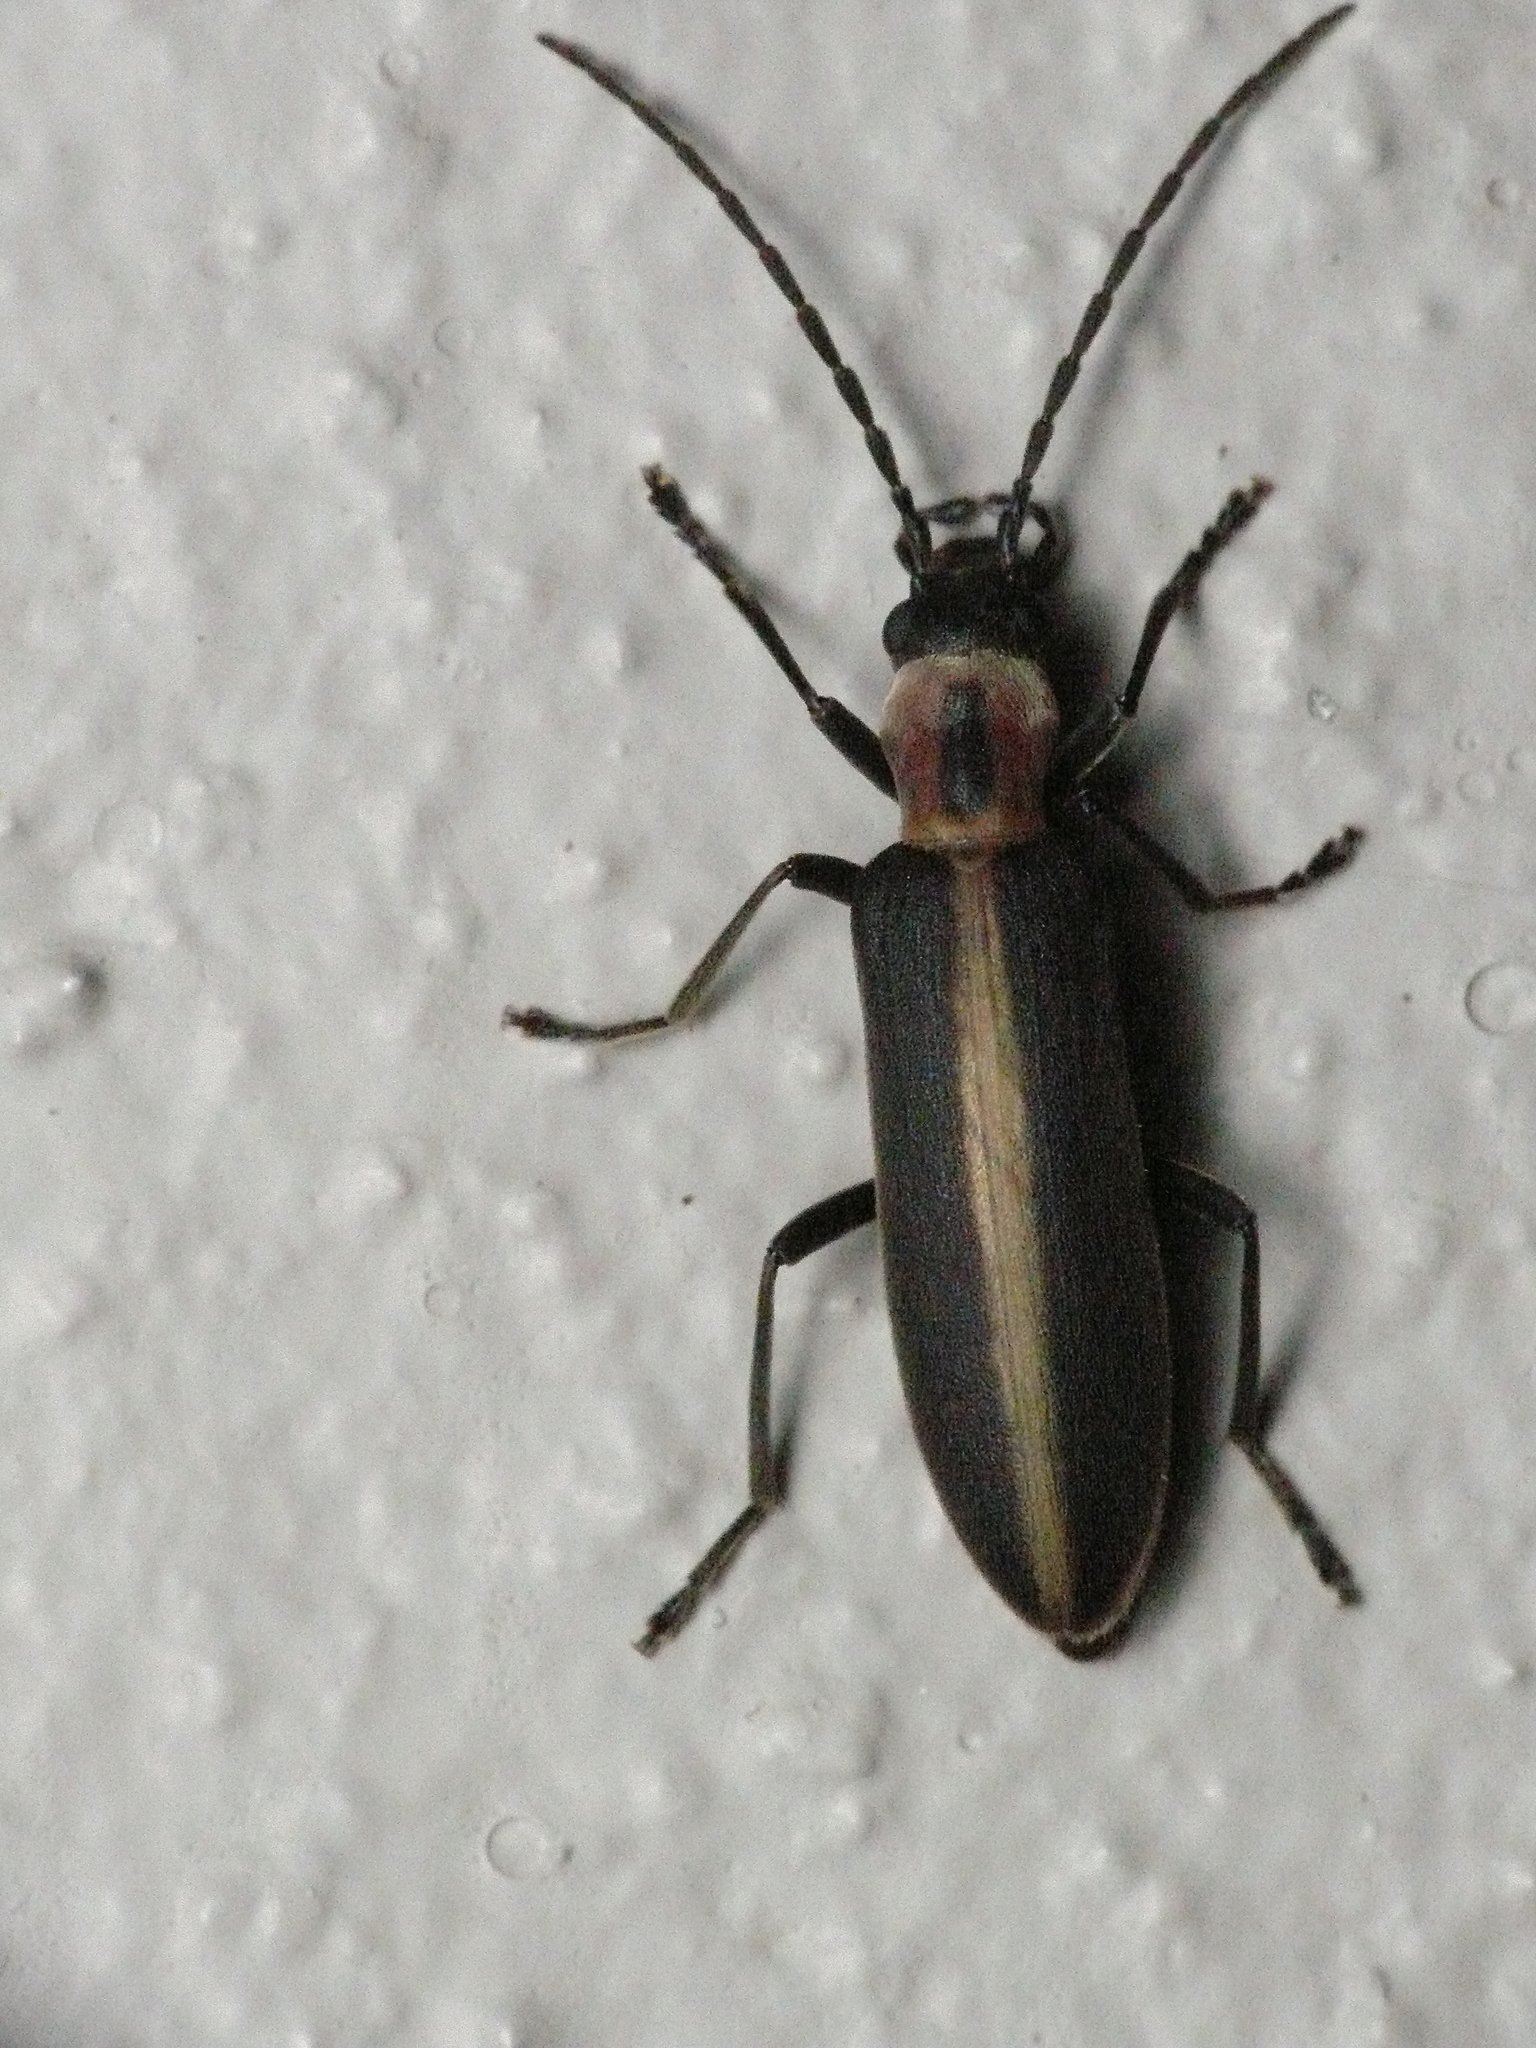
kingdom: Animalia
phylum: Arthropoda
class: Insecta
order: Coleoptera
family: Oedemeridae
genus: Oxycopis
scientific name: Oxycopis mimetica
